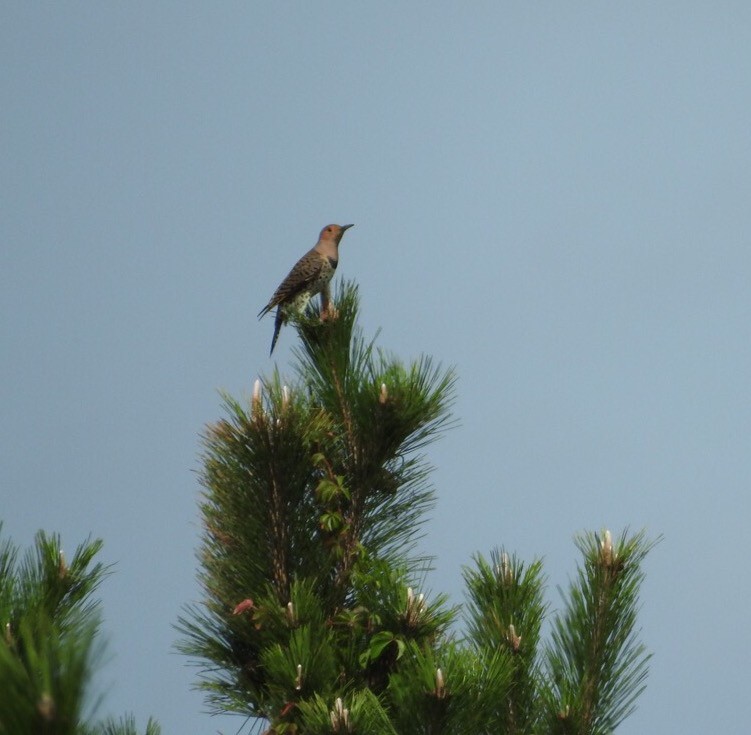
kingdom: Animalia
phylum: Chordata
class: Aves
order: Piciformes
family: Picidae
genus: Colaptes
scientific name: Colaptes auratus
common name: Northern flicker
